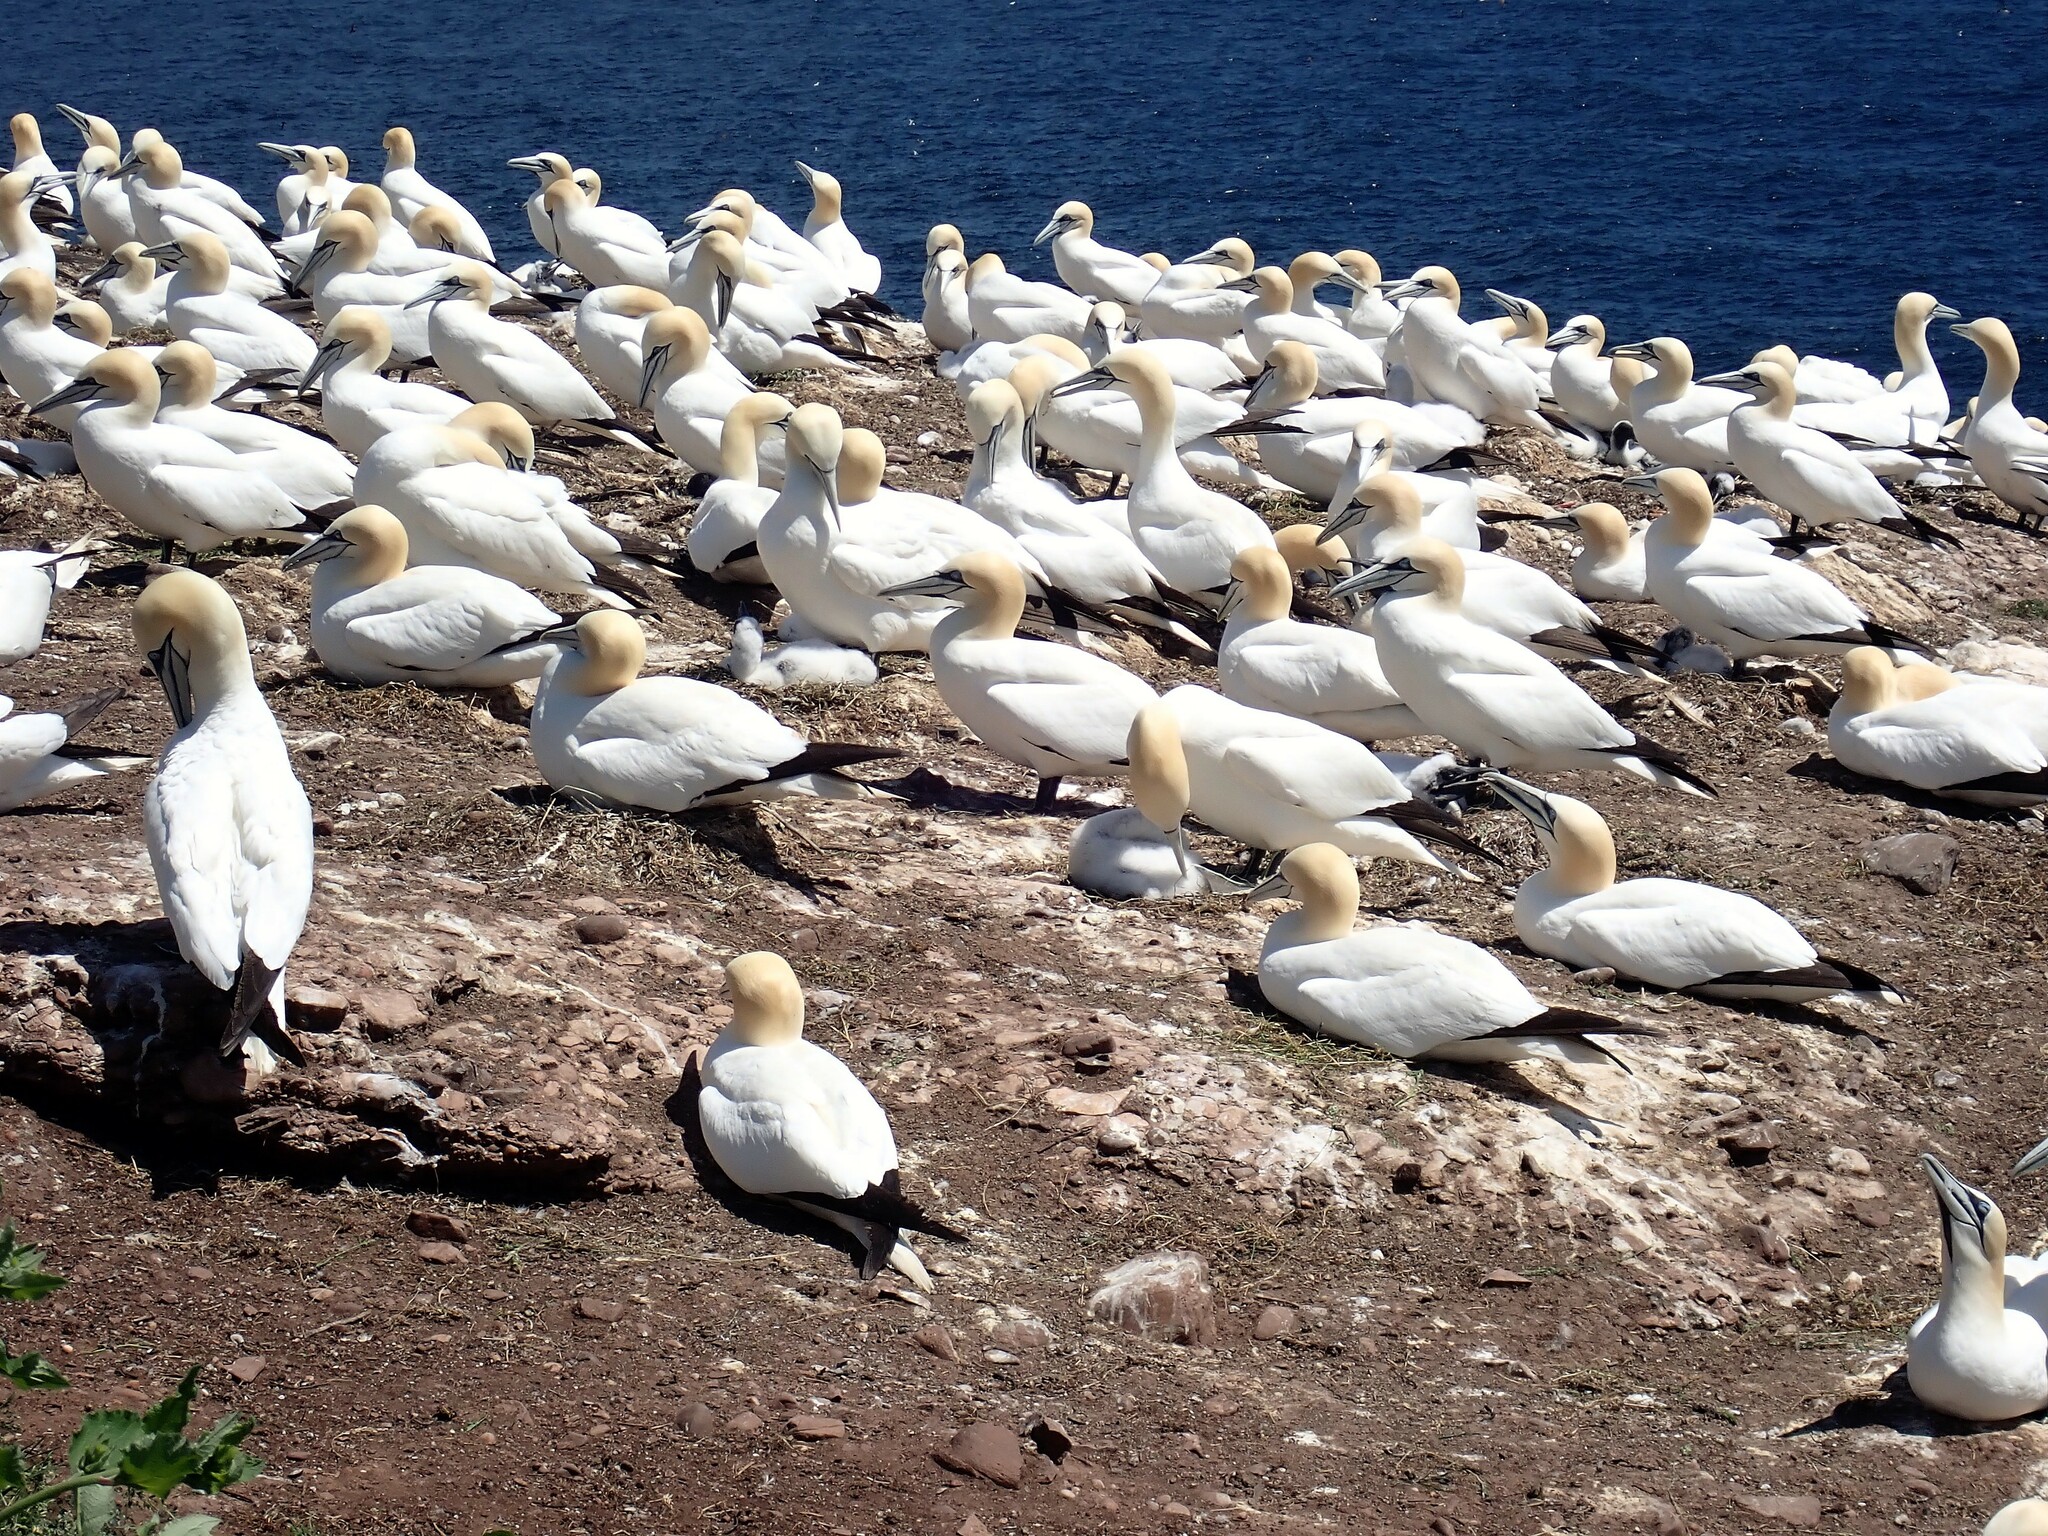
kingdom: Animalia
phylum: Chordata
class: Aves
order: Suliformes
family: Sulidae
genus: Morus
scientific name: Morus bassanus
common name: Northern gannet
